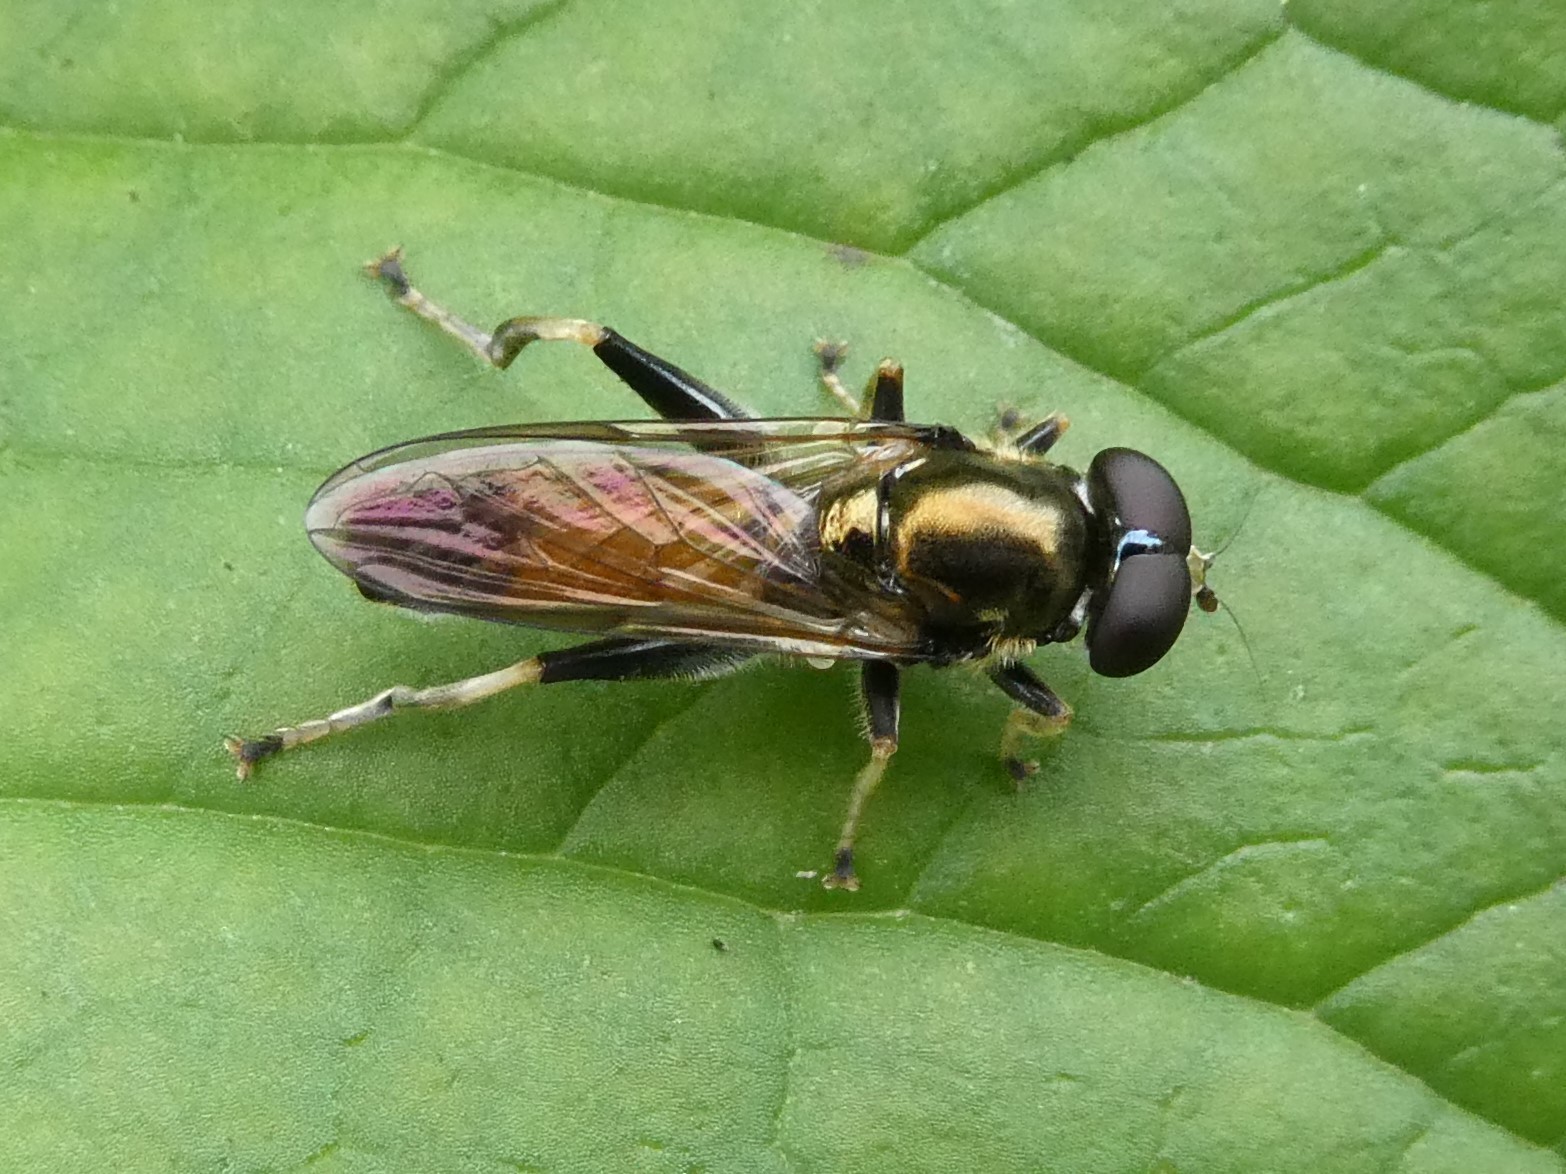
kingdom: Animalia
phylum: Arthropoda
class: Insecta
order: Diptera
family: Syrphidae
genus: Xylota
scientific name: Xylota segnis
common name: Brown-toed forest fly
